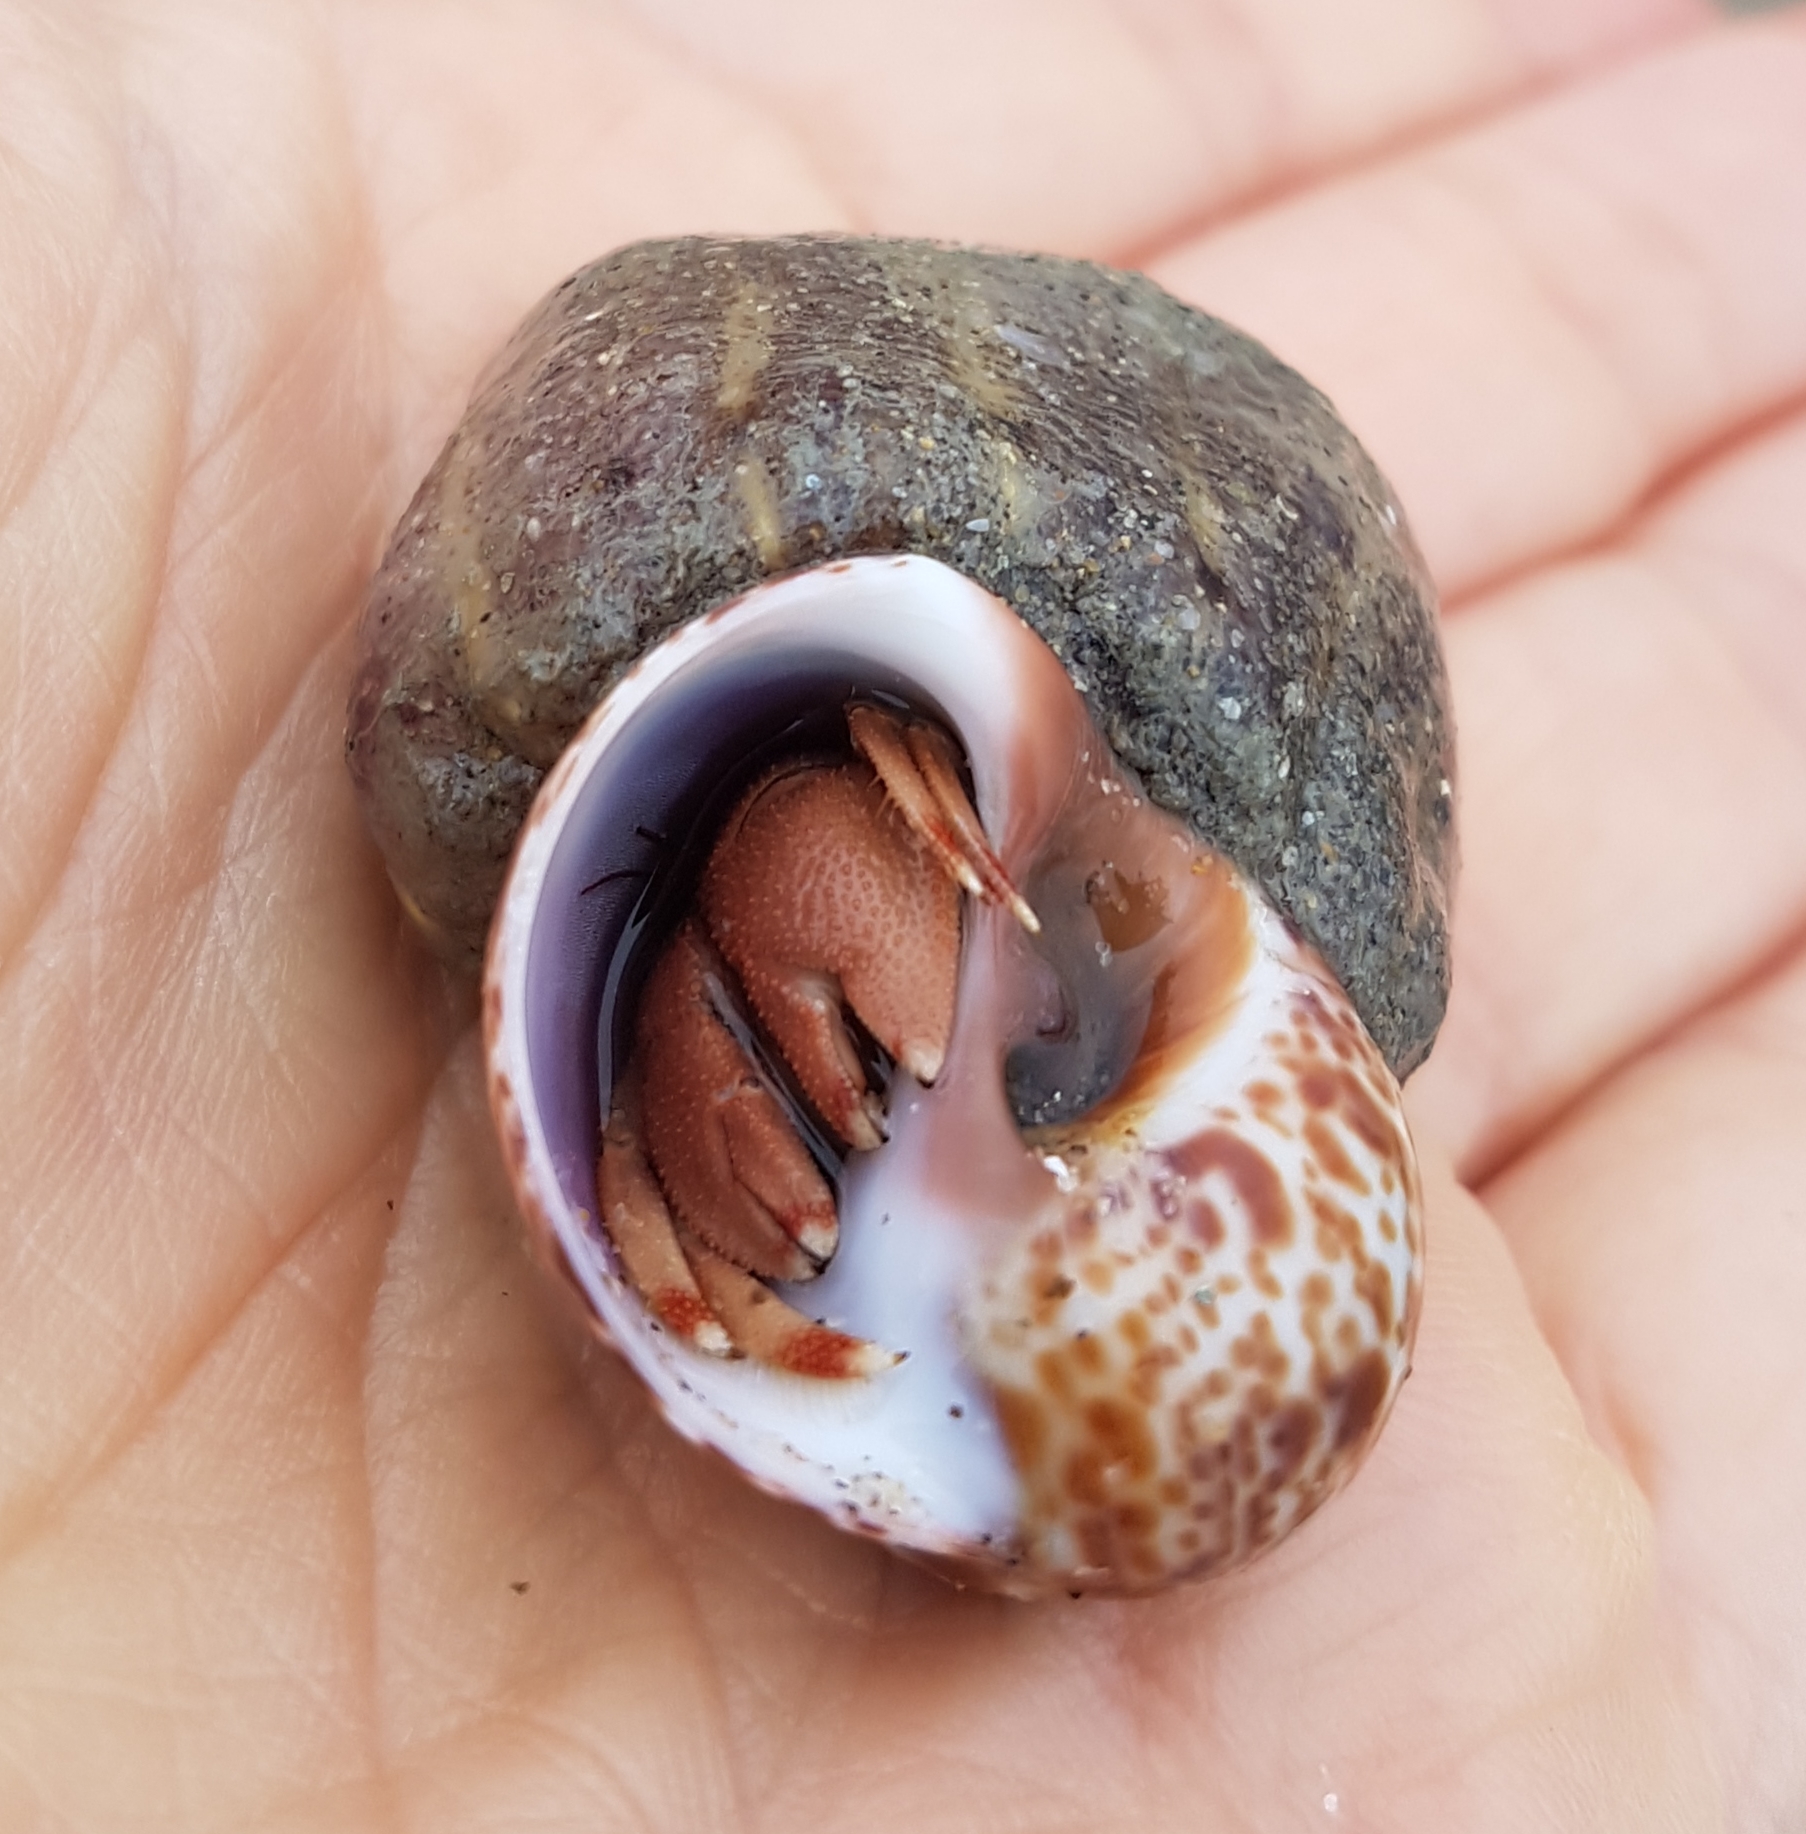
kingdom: Animalia
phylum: Arthropoda
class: Malacostraca
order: Decapoda
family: Diogenidae
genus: Paguristes
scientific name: Paguristes eremita
